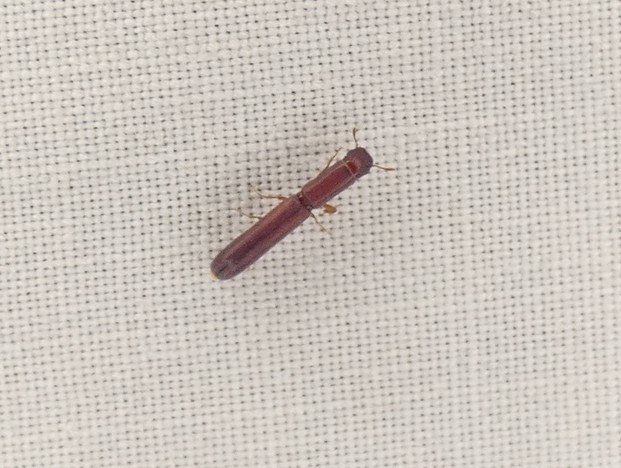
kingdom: Animalia
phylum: Arthropoda
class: Insecta
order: Coleoptera
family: Zopheridae
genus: Nematidium
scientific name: Nematidium filiforme
